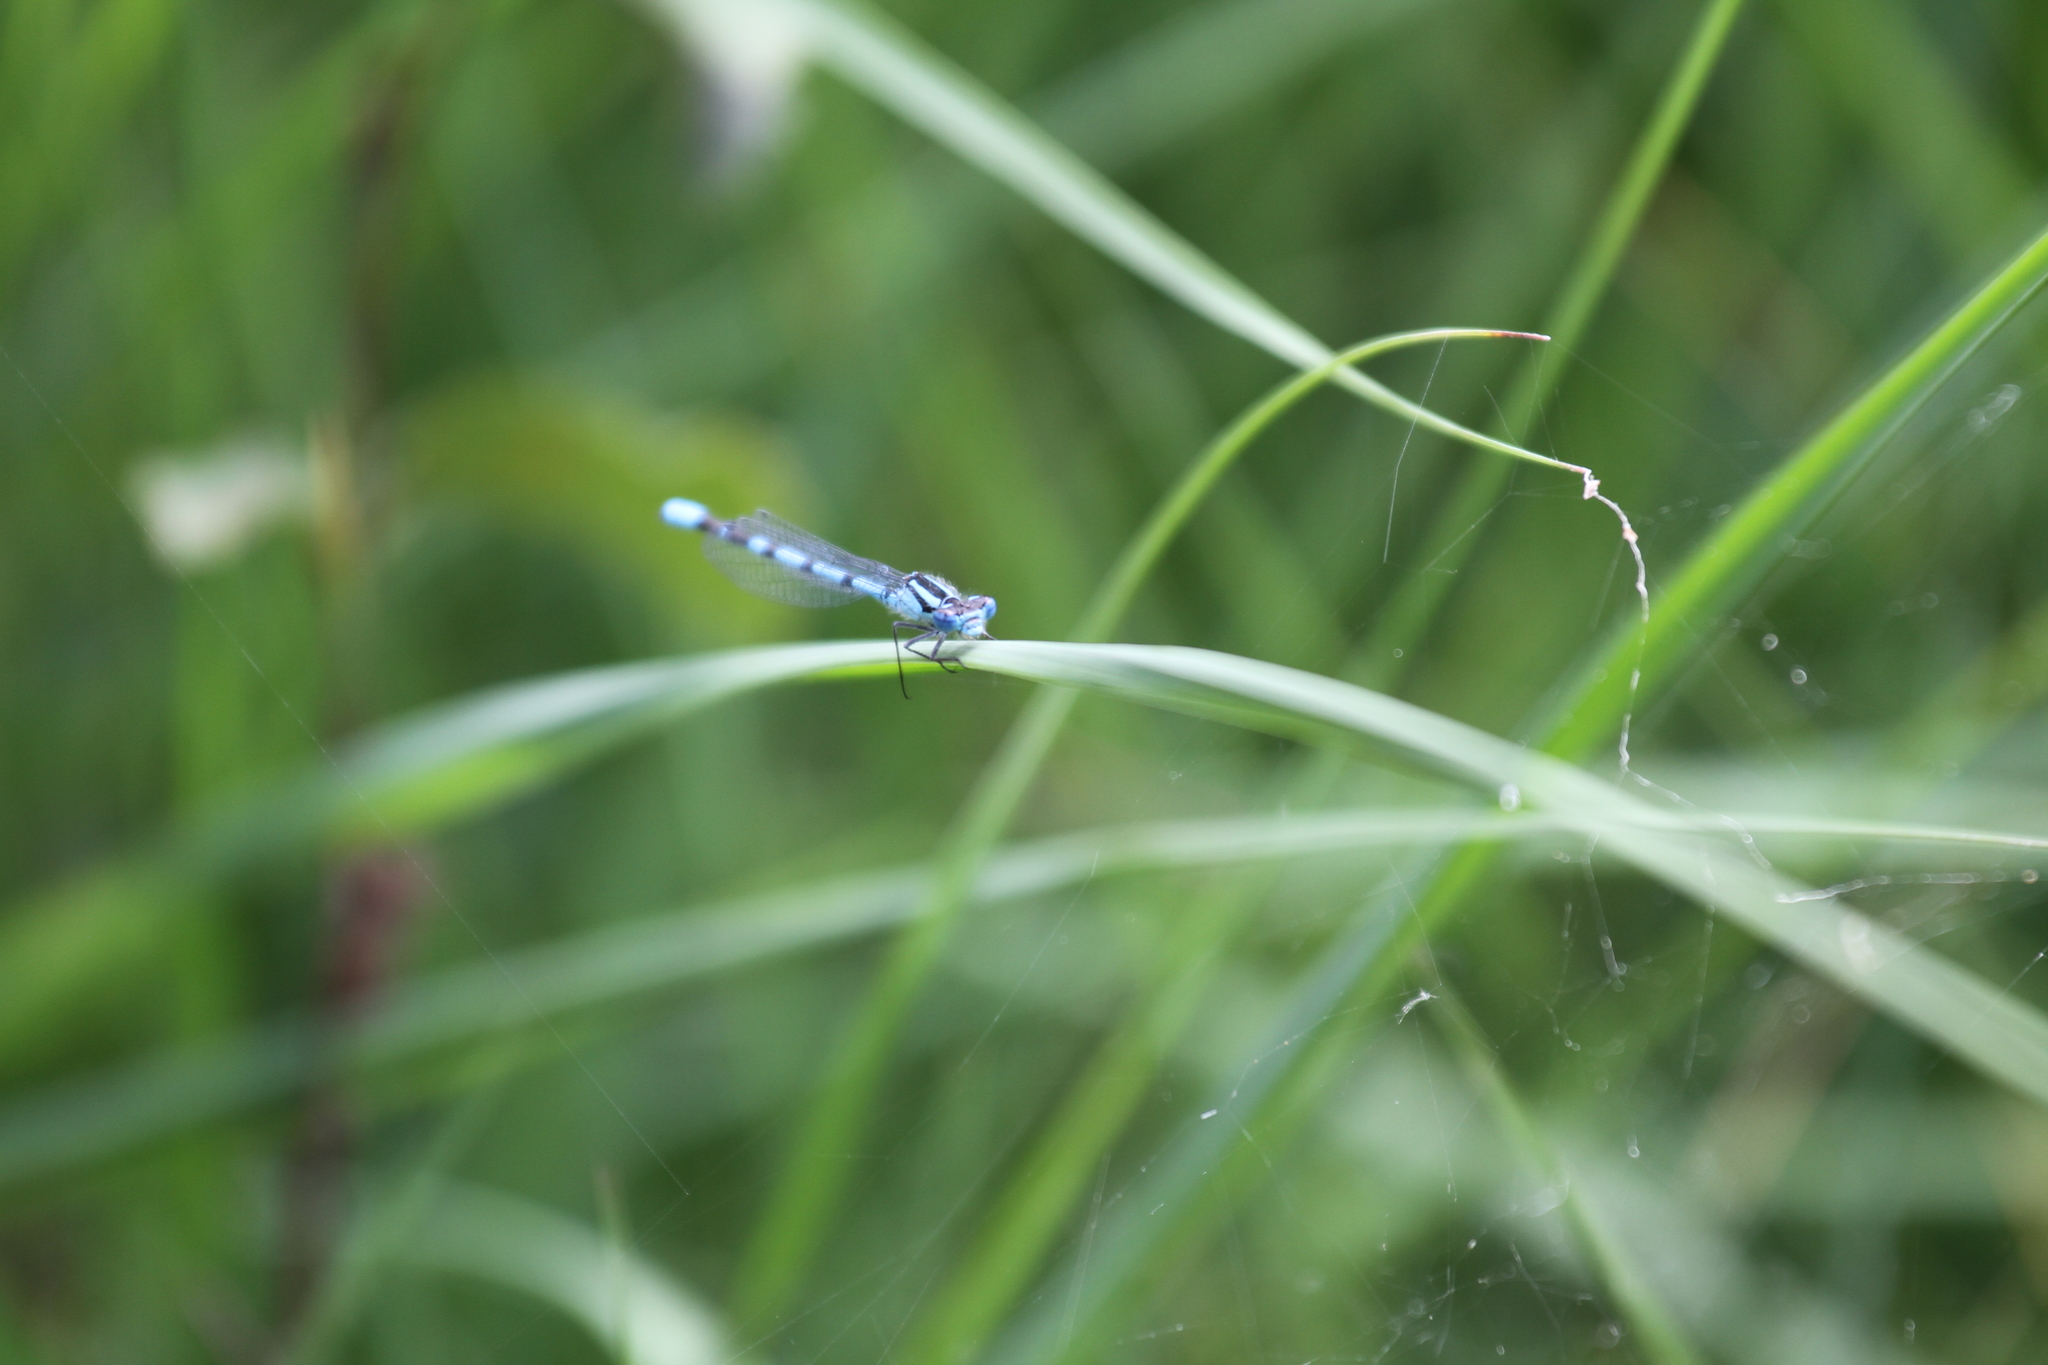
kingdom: Animalia
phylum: Arthropoda
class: Insecta
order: Odonata
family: Coenagrionidae
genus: Enallagma
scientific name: Enallagma cyathigerum
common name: Common blue damselfly
